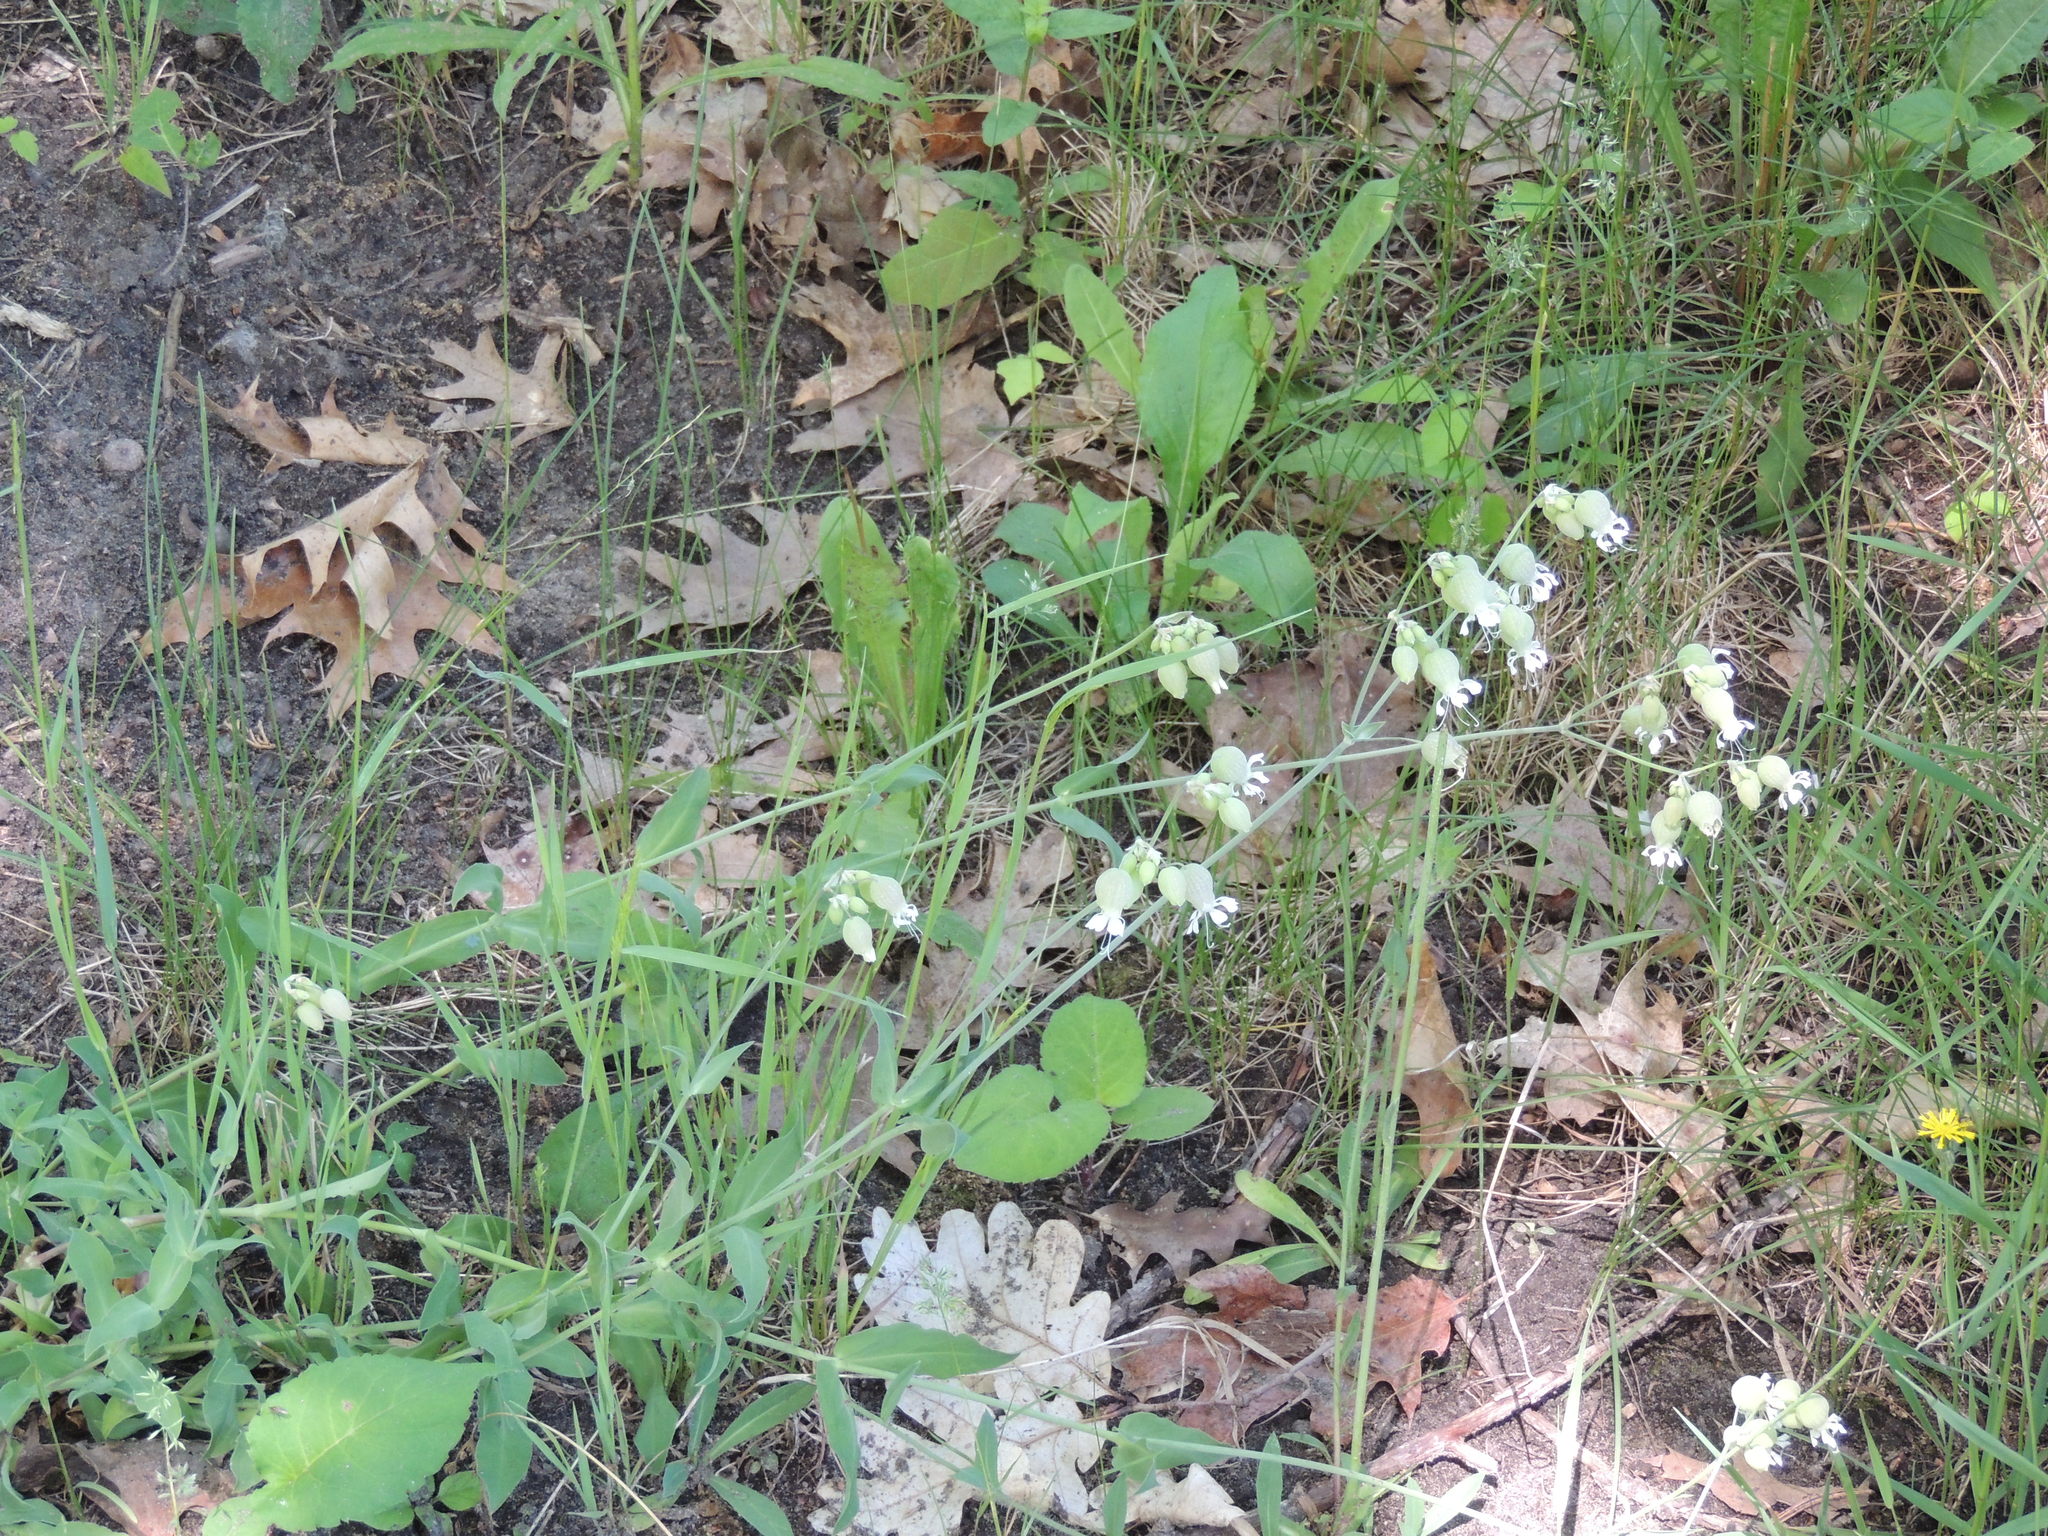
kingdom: Plantae
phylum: Tracheophyta
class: Magnoliopsida
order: Caryophyllales
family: Caryophyllaceae
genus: Silene
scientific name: Silene vulgaris
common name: Bladder campion
